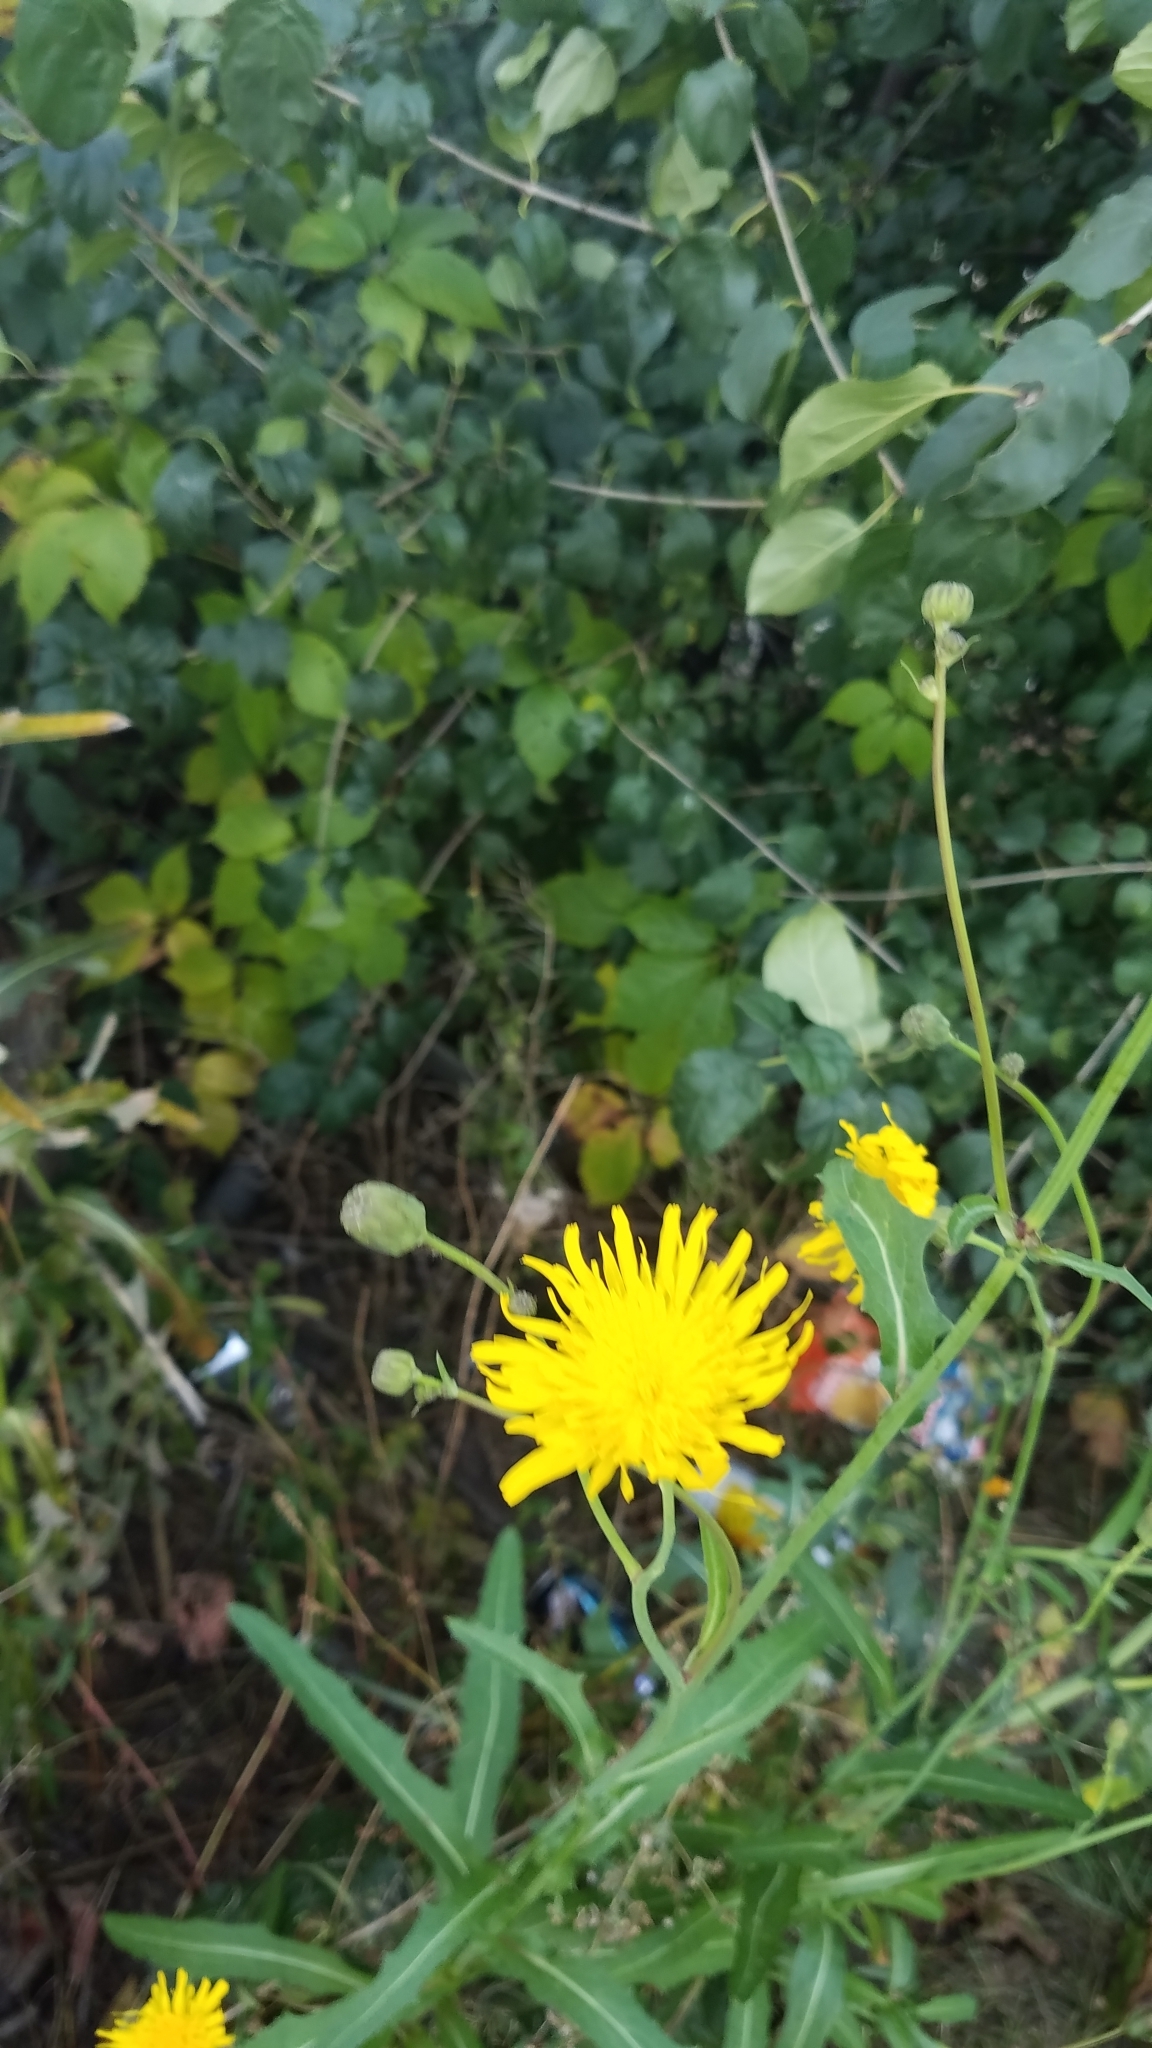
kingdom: Plantae
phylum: Tracheophyta
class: Magnoliopsida
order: Asterales
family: Asteraceae
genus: Sonchus
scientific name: Sonchus arvensis
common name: Perennial sow-thistle
